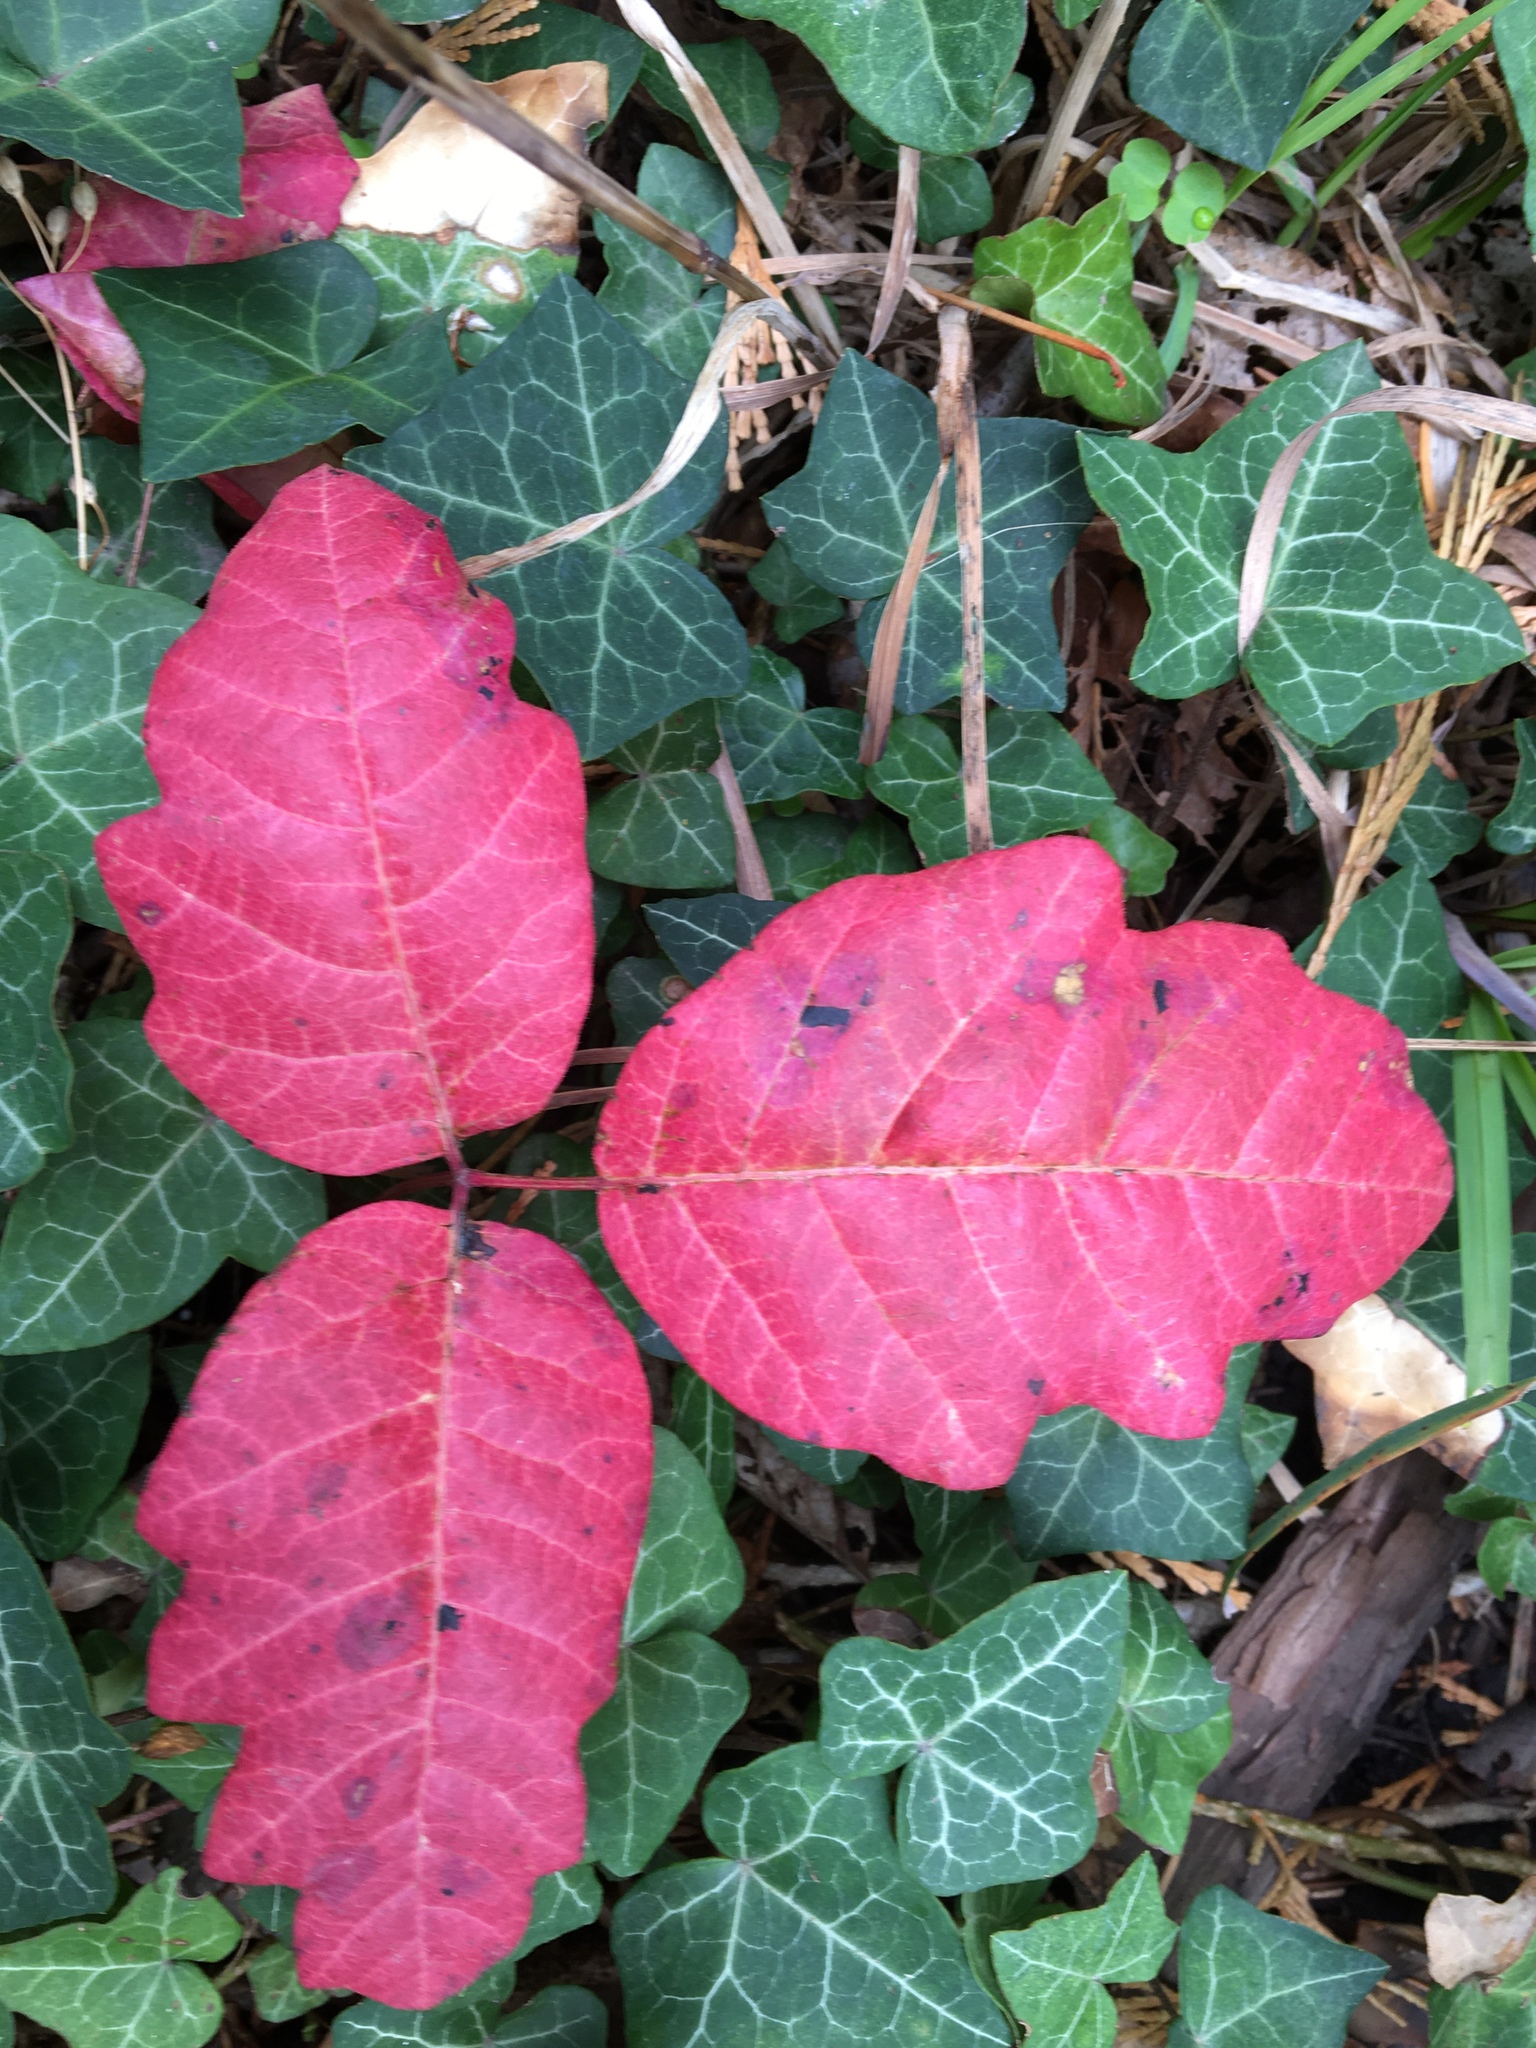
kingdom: Plantae
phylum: Tracheophyta
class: Magnoliopsida
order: Sapindales
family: Anacardiaceae
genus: Toxicodendron
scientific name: Toxicodendron diversilobum
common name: Pacific poison-oak
